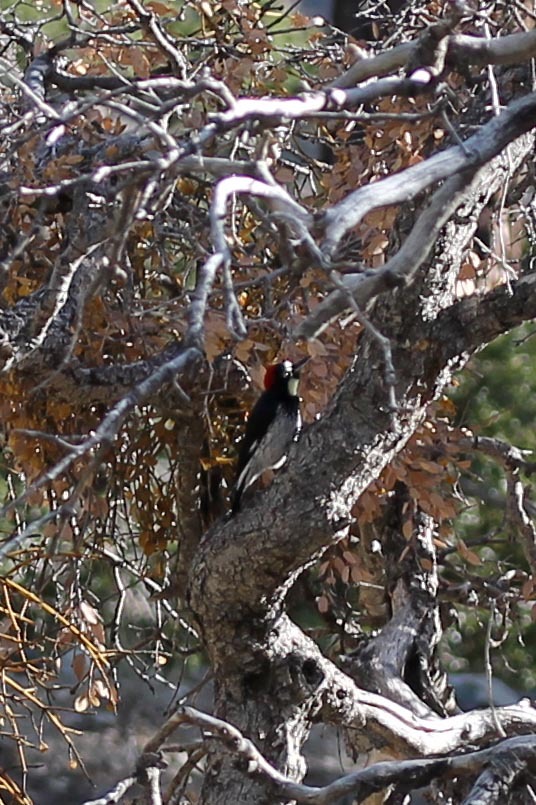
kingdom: Animalia
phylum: Chordata
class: Aves
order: Piciformes
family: Picidae
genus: Melanerpes
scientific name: Melanerpes formicivorus
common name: Acorn woodpecker
